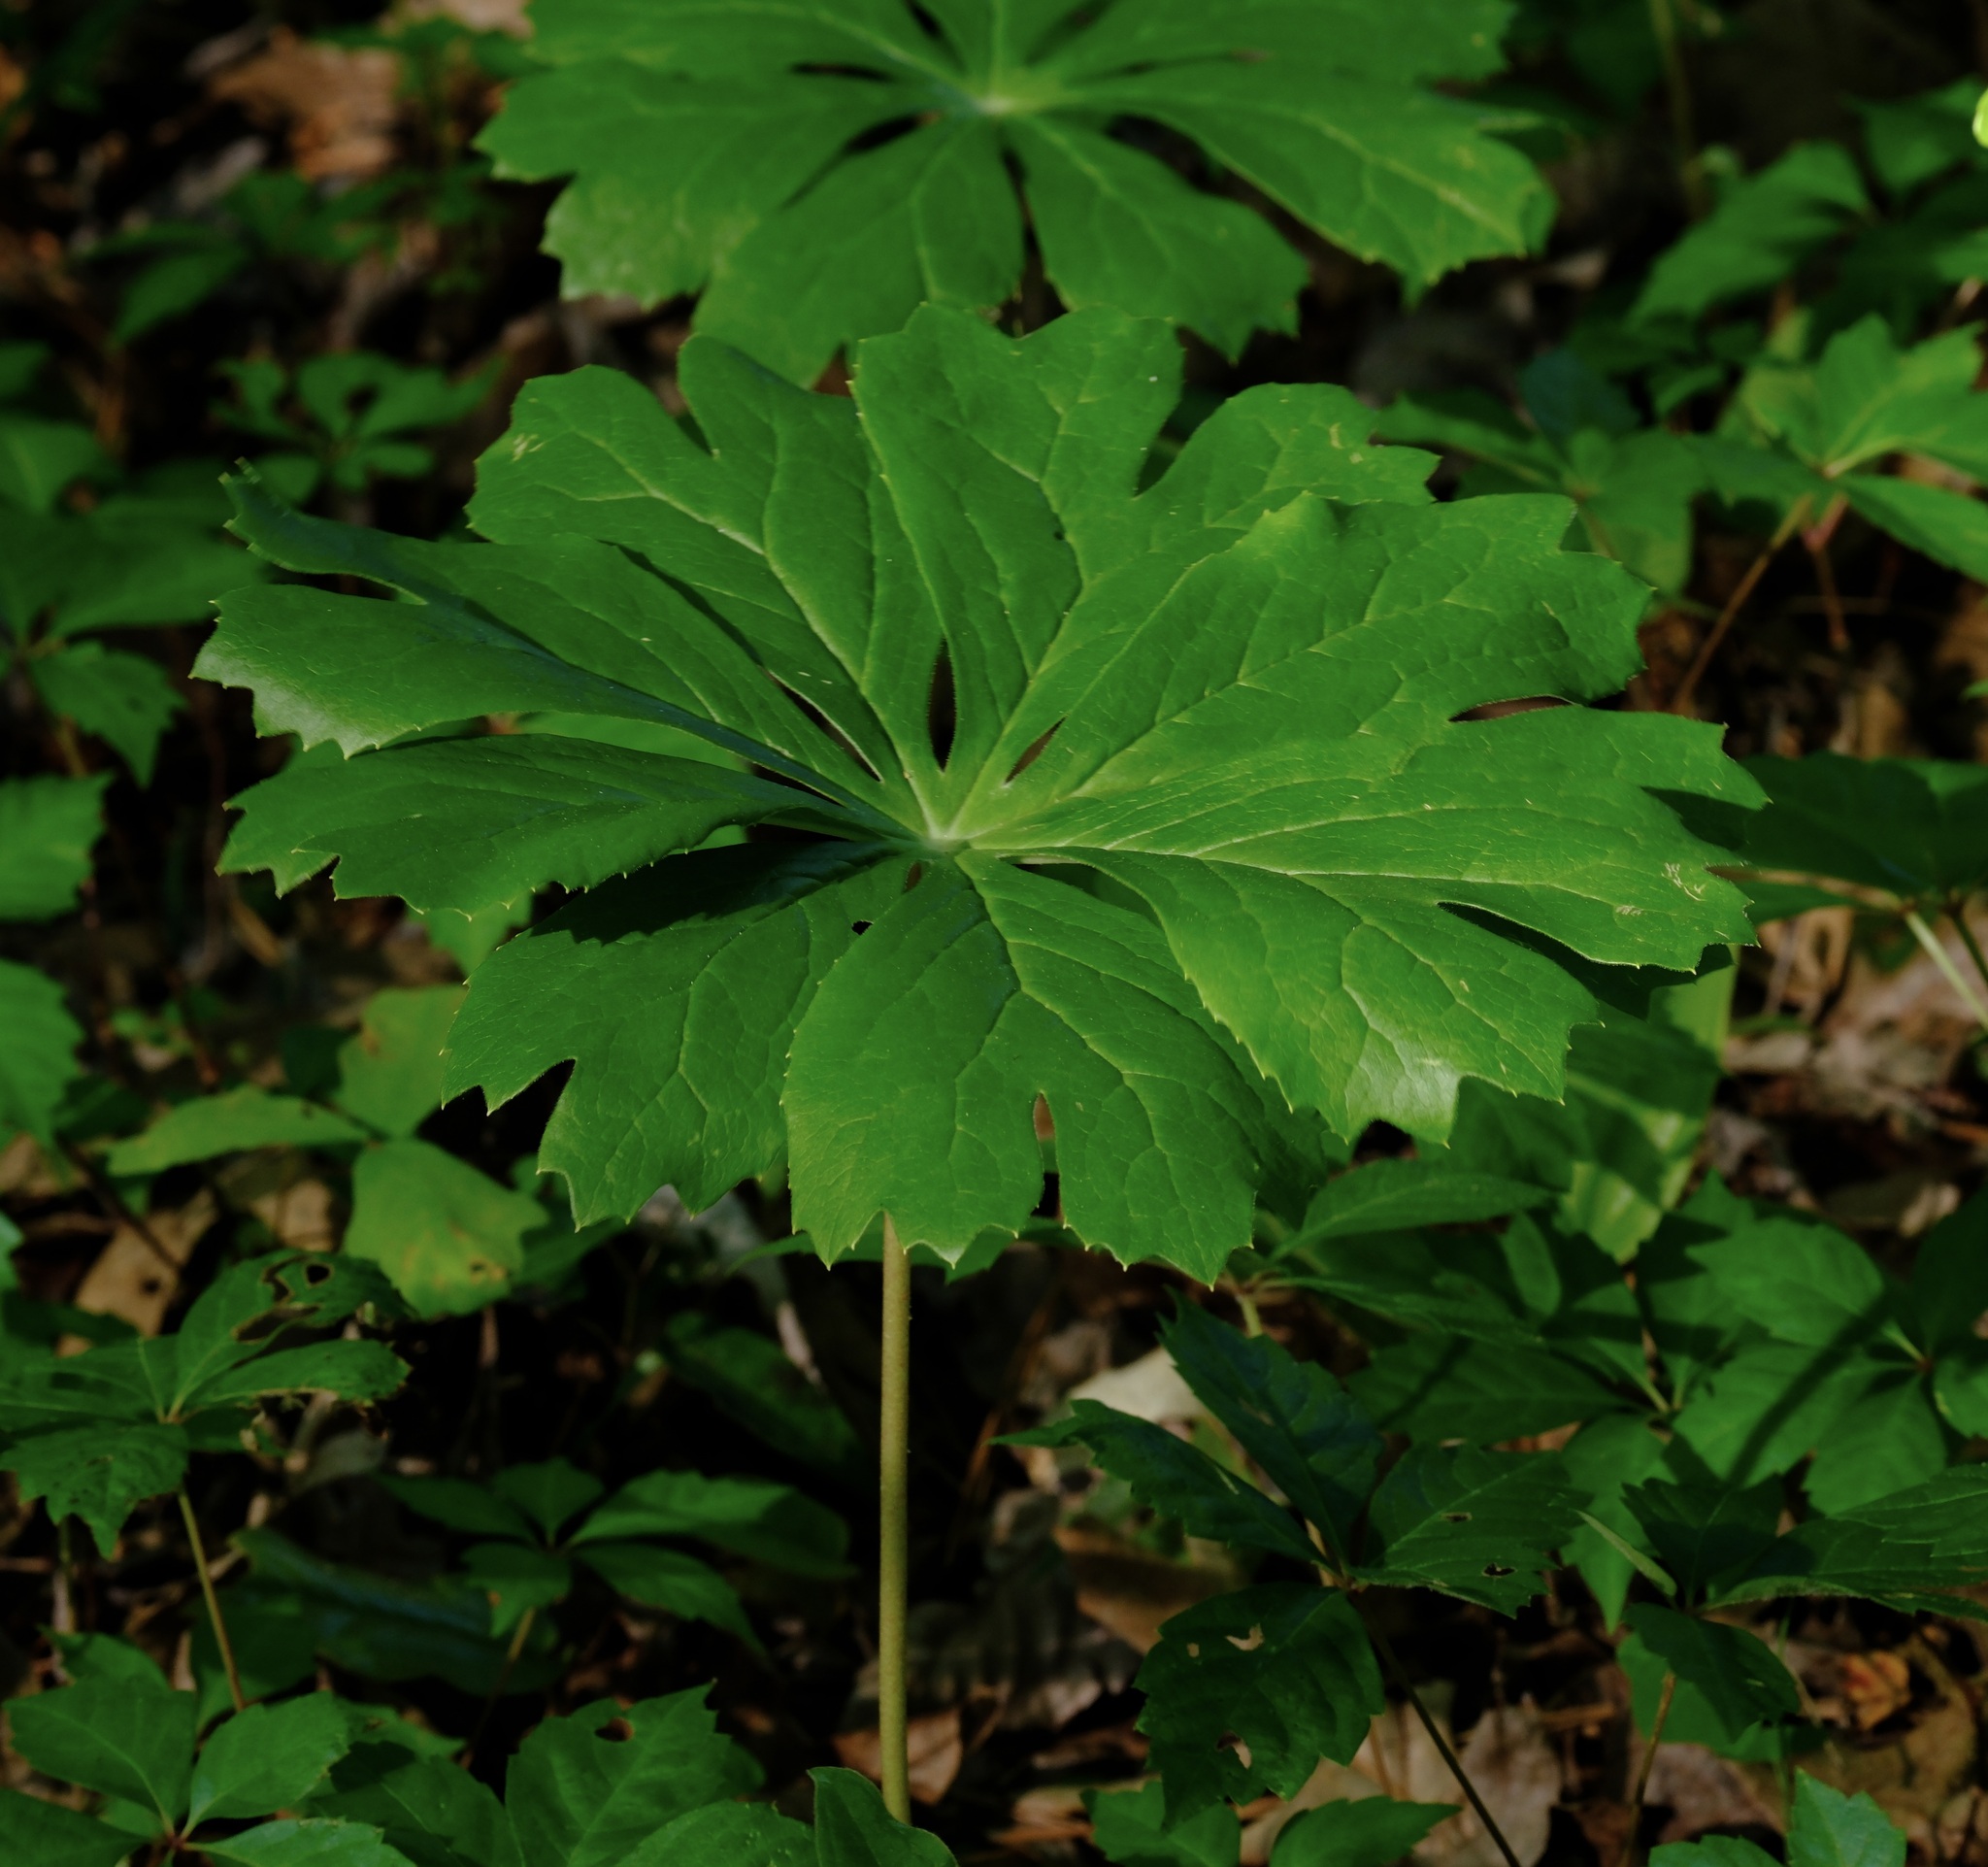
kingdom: Plantae
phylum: Tracheophyta
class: Magnoliopsida
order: Ranunculales
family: Berberidaceae
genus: Podophyllum
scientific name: Podophyllum peltatum
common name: Wild mandrake
